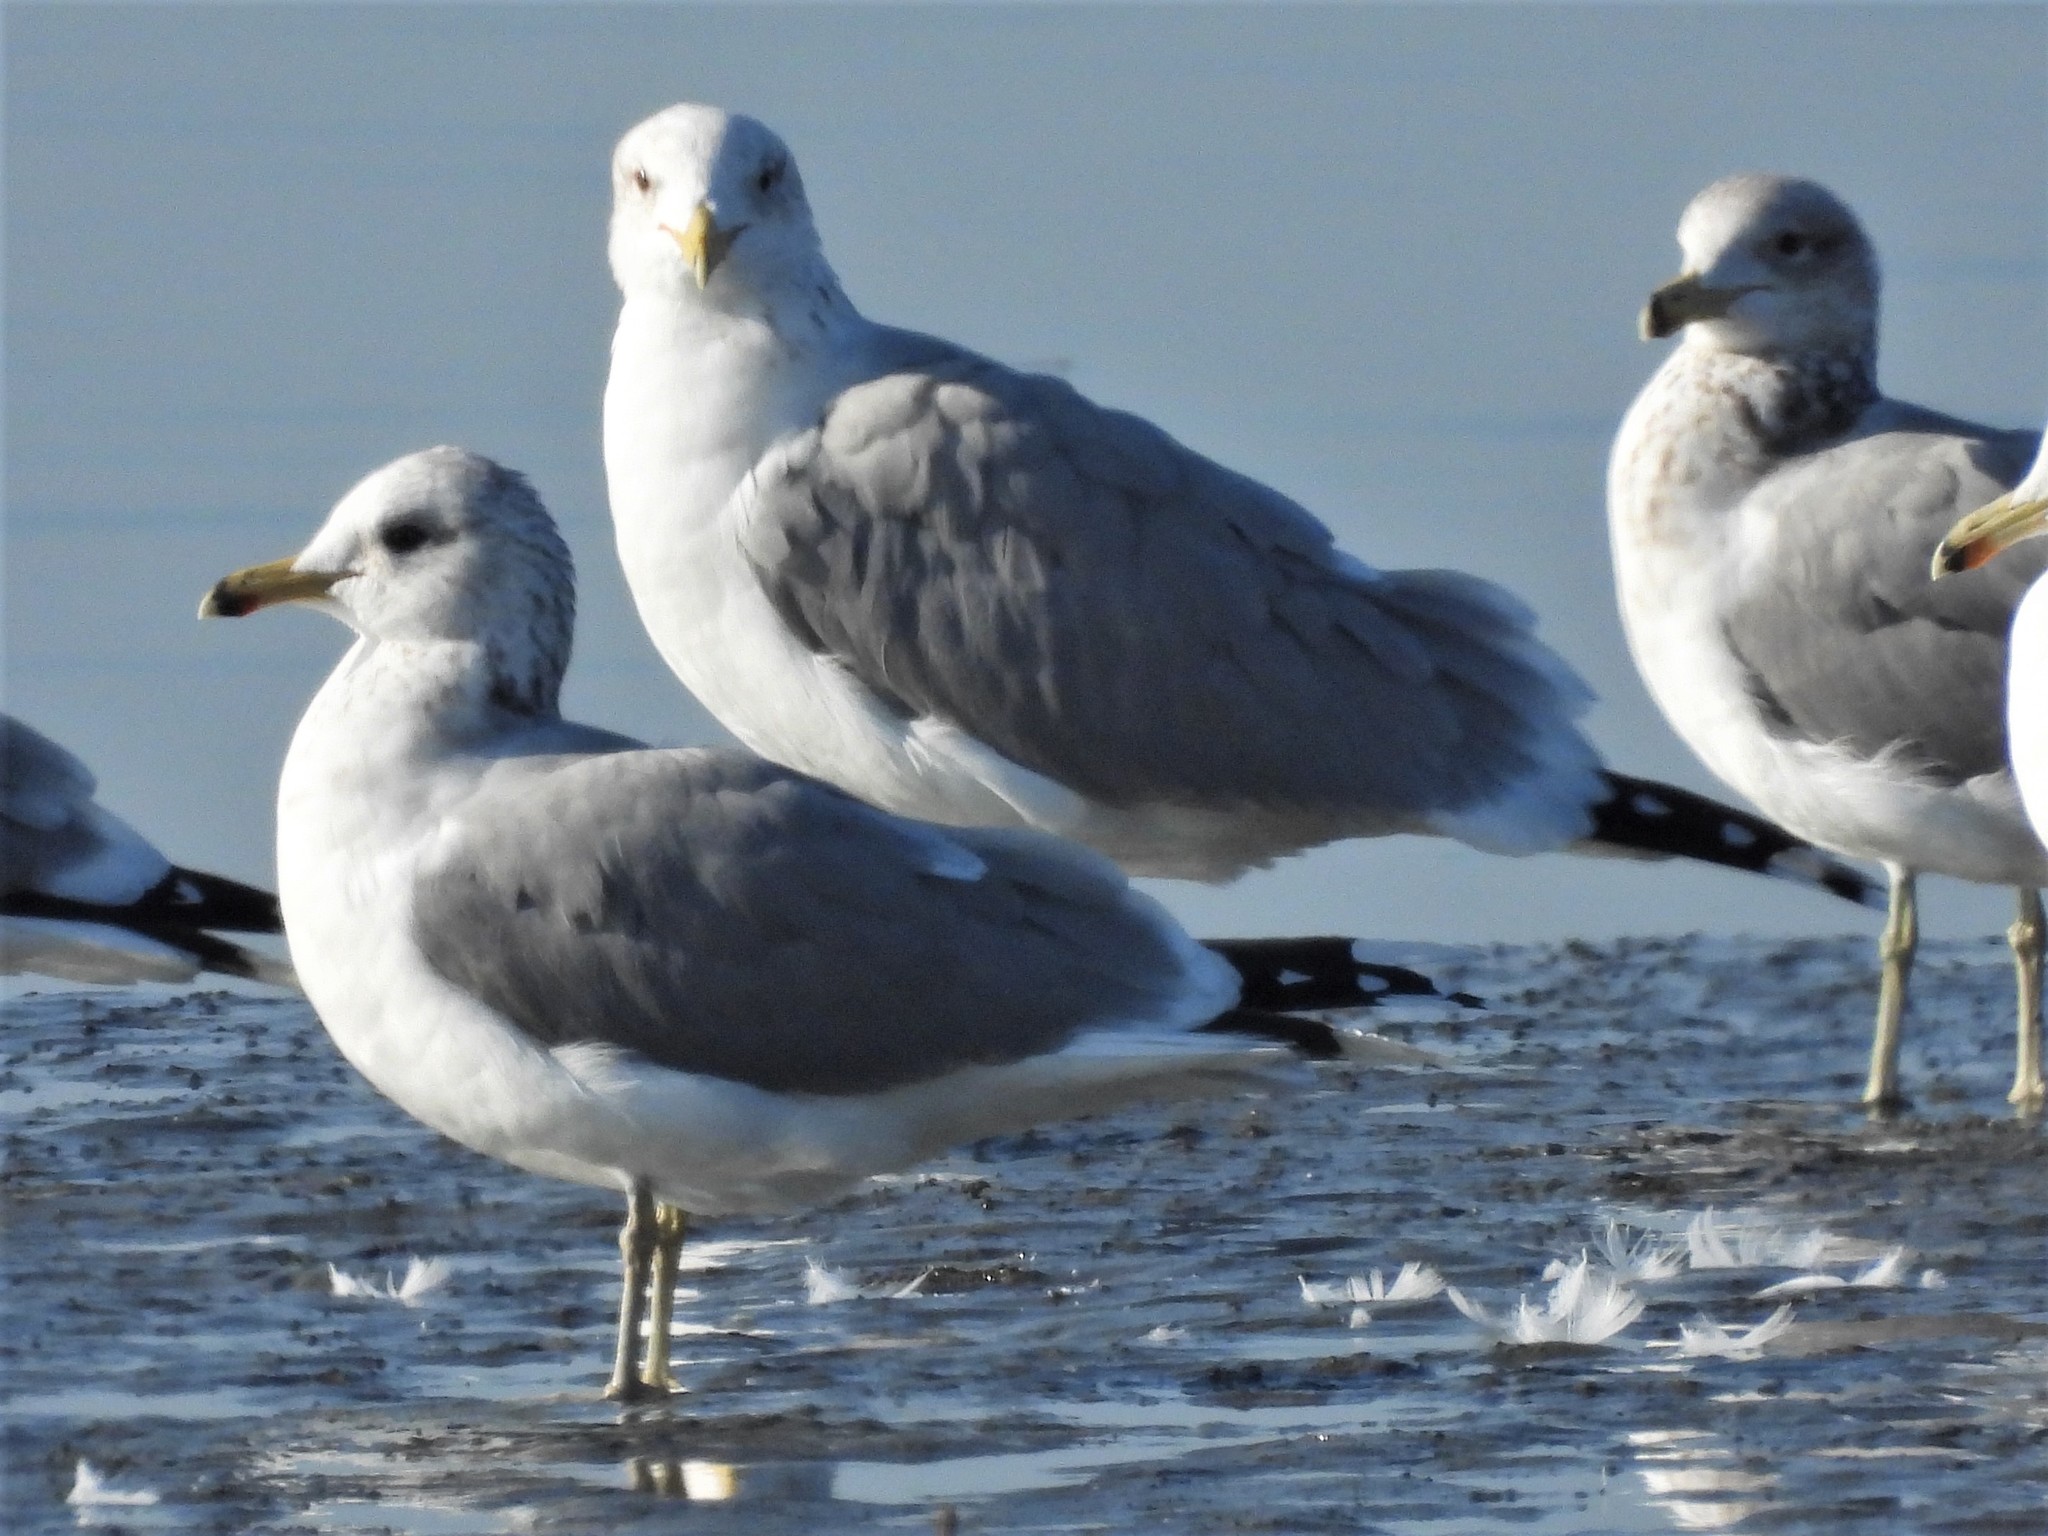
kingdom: Animalia
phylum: Chordata
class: Aves
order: Charadriiformes
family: Laridae
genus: Larus
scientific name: Larus californicus
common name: California gull
